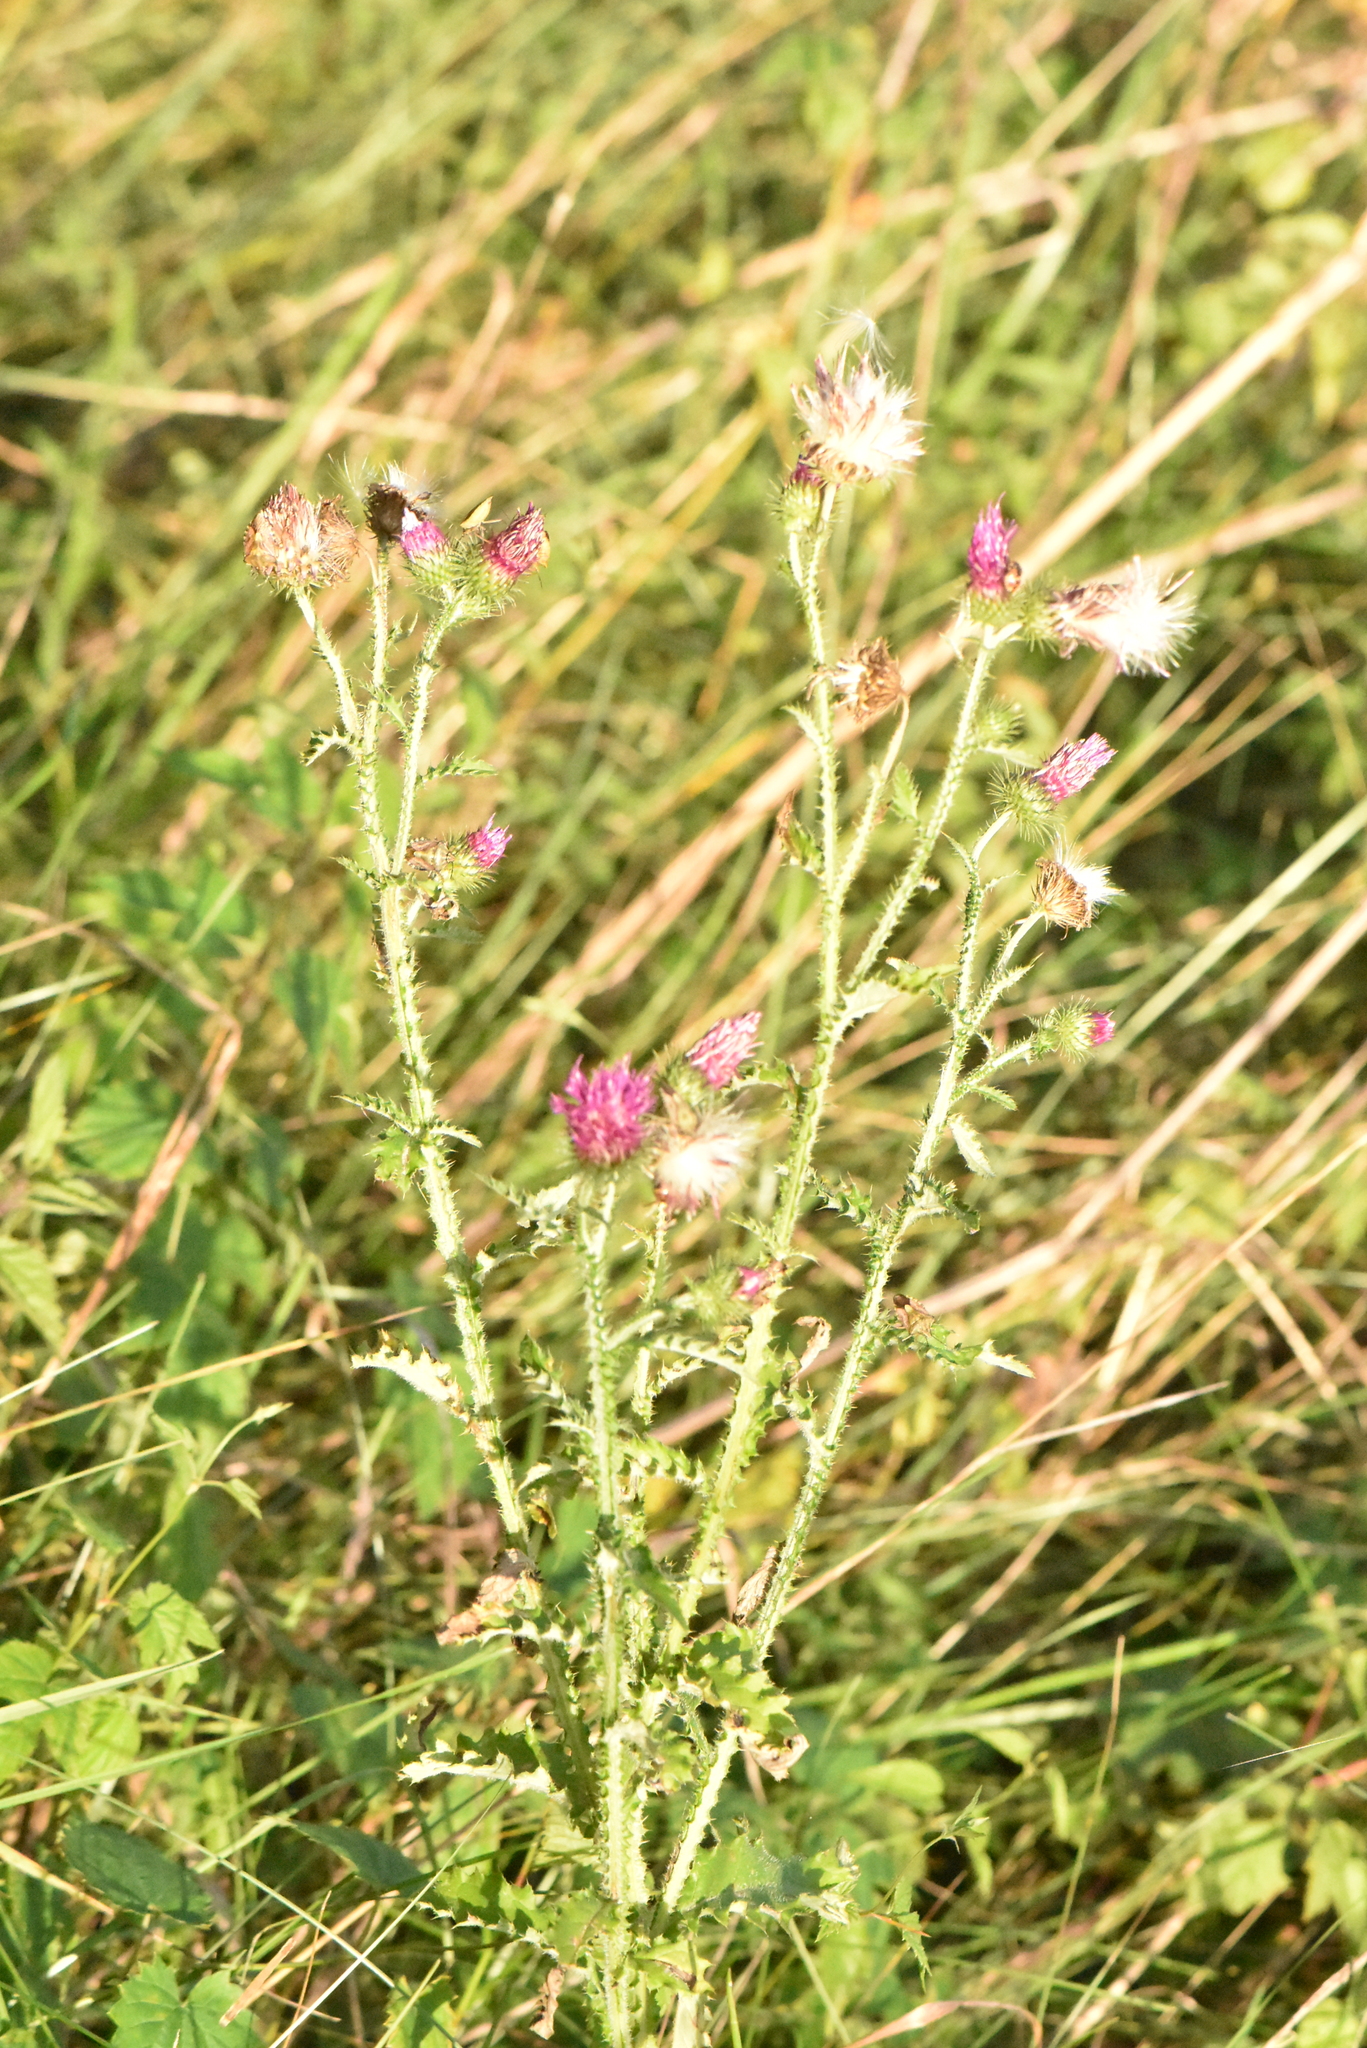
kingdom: Plantae
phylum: Tracheophyta
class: Magnoliopsida
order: Asterales
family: Asteraceae
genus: Carduus
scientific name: Carduus crispus
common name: Welted thistle
